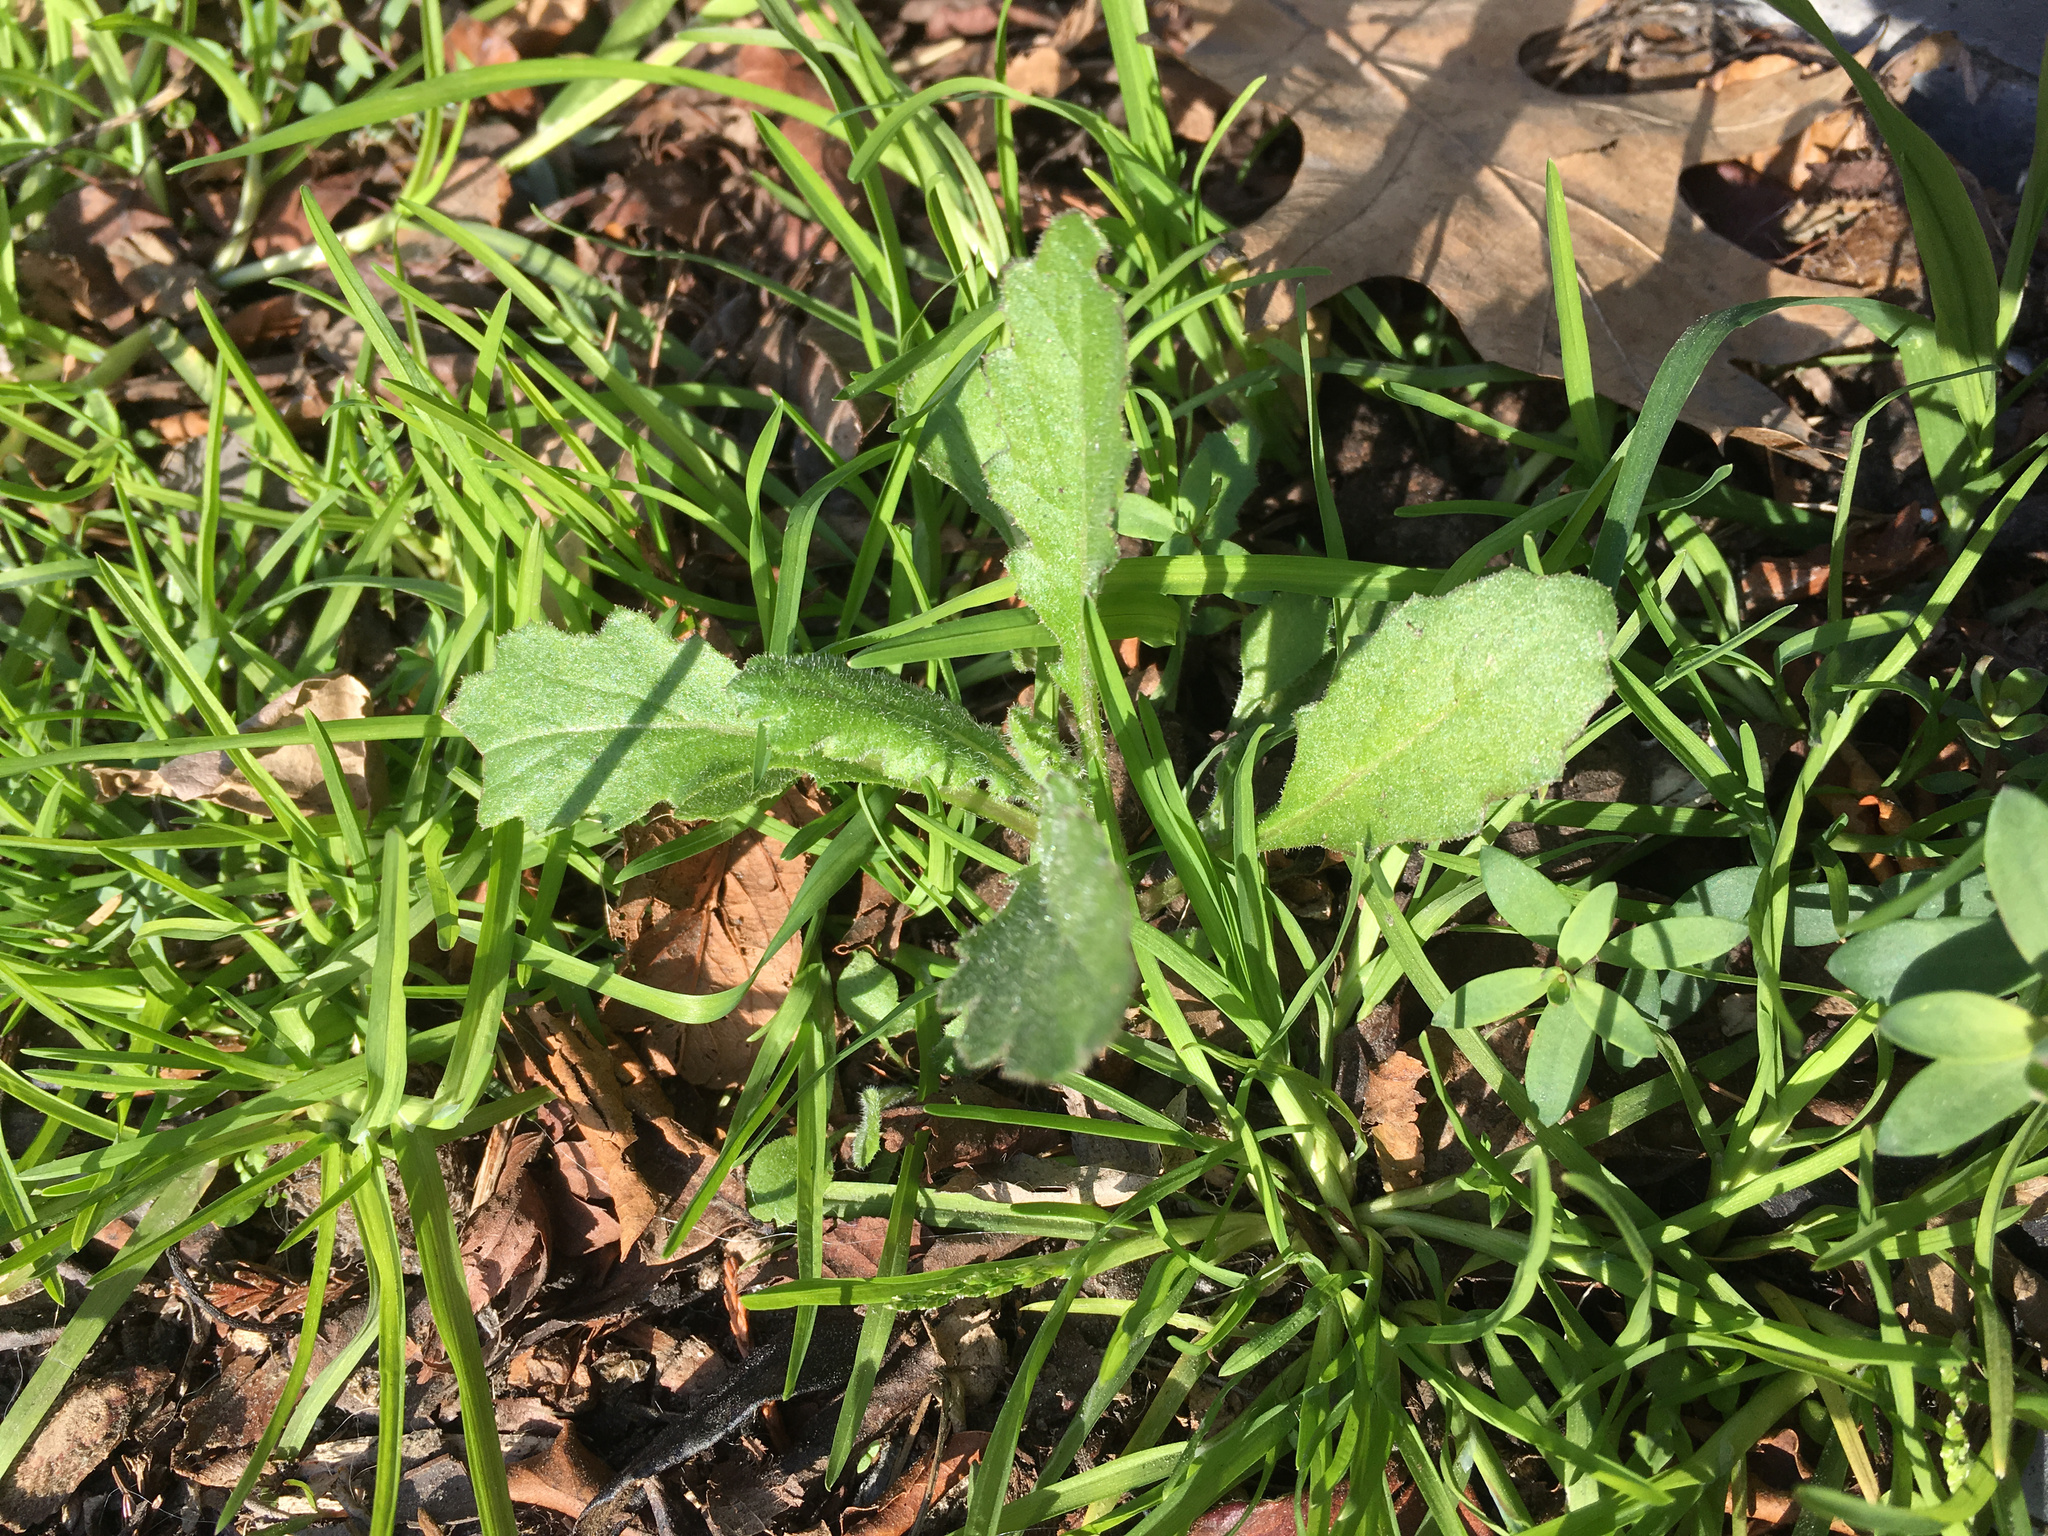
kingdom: Plantae
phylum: Tracheophyta
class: Magnoliopsida
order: Asterales
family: Asteraceae
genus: Senecio
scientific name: Senecio glomeratus
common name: Cutleaf burnweed
